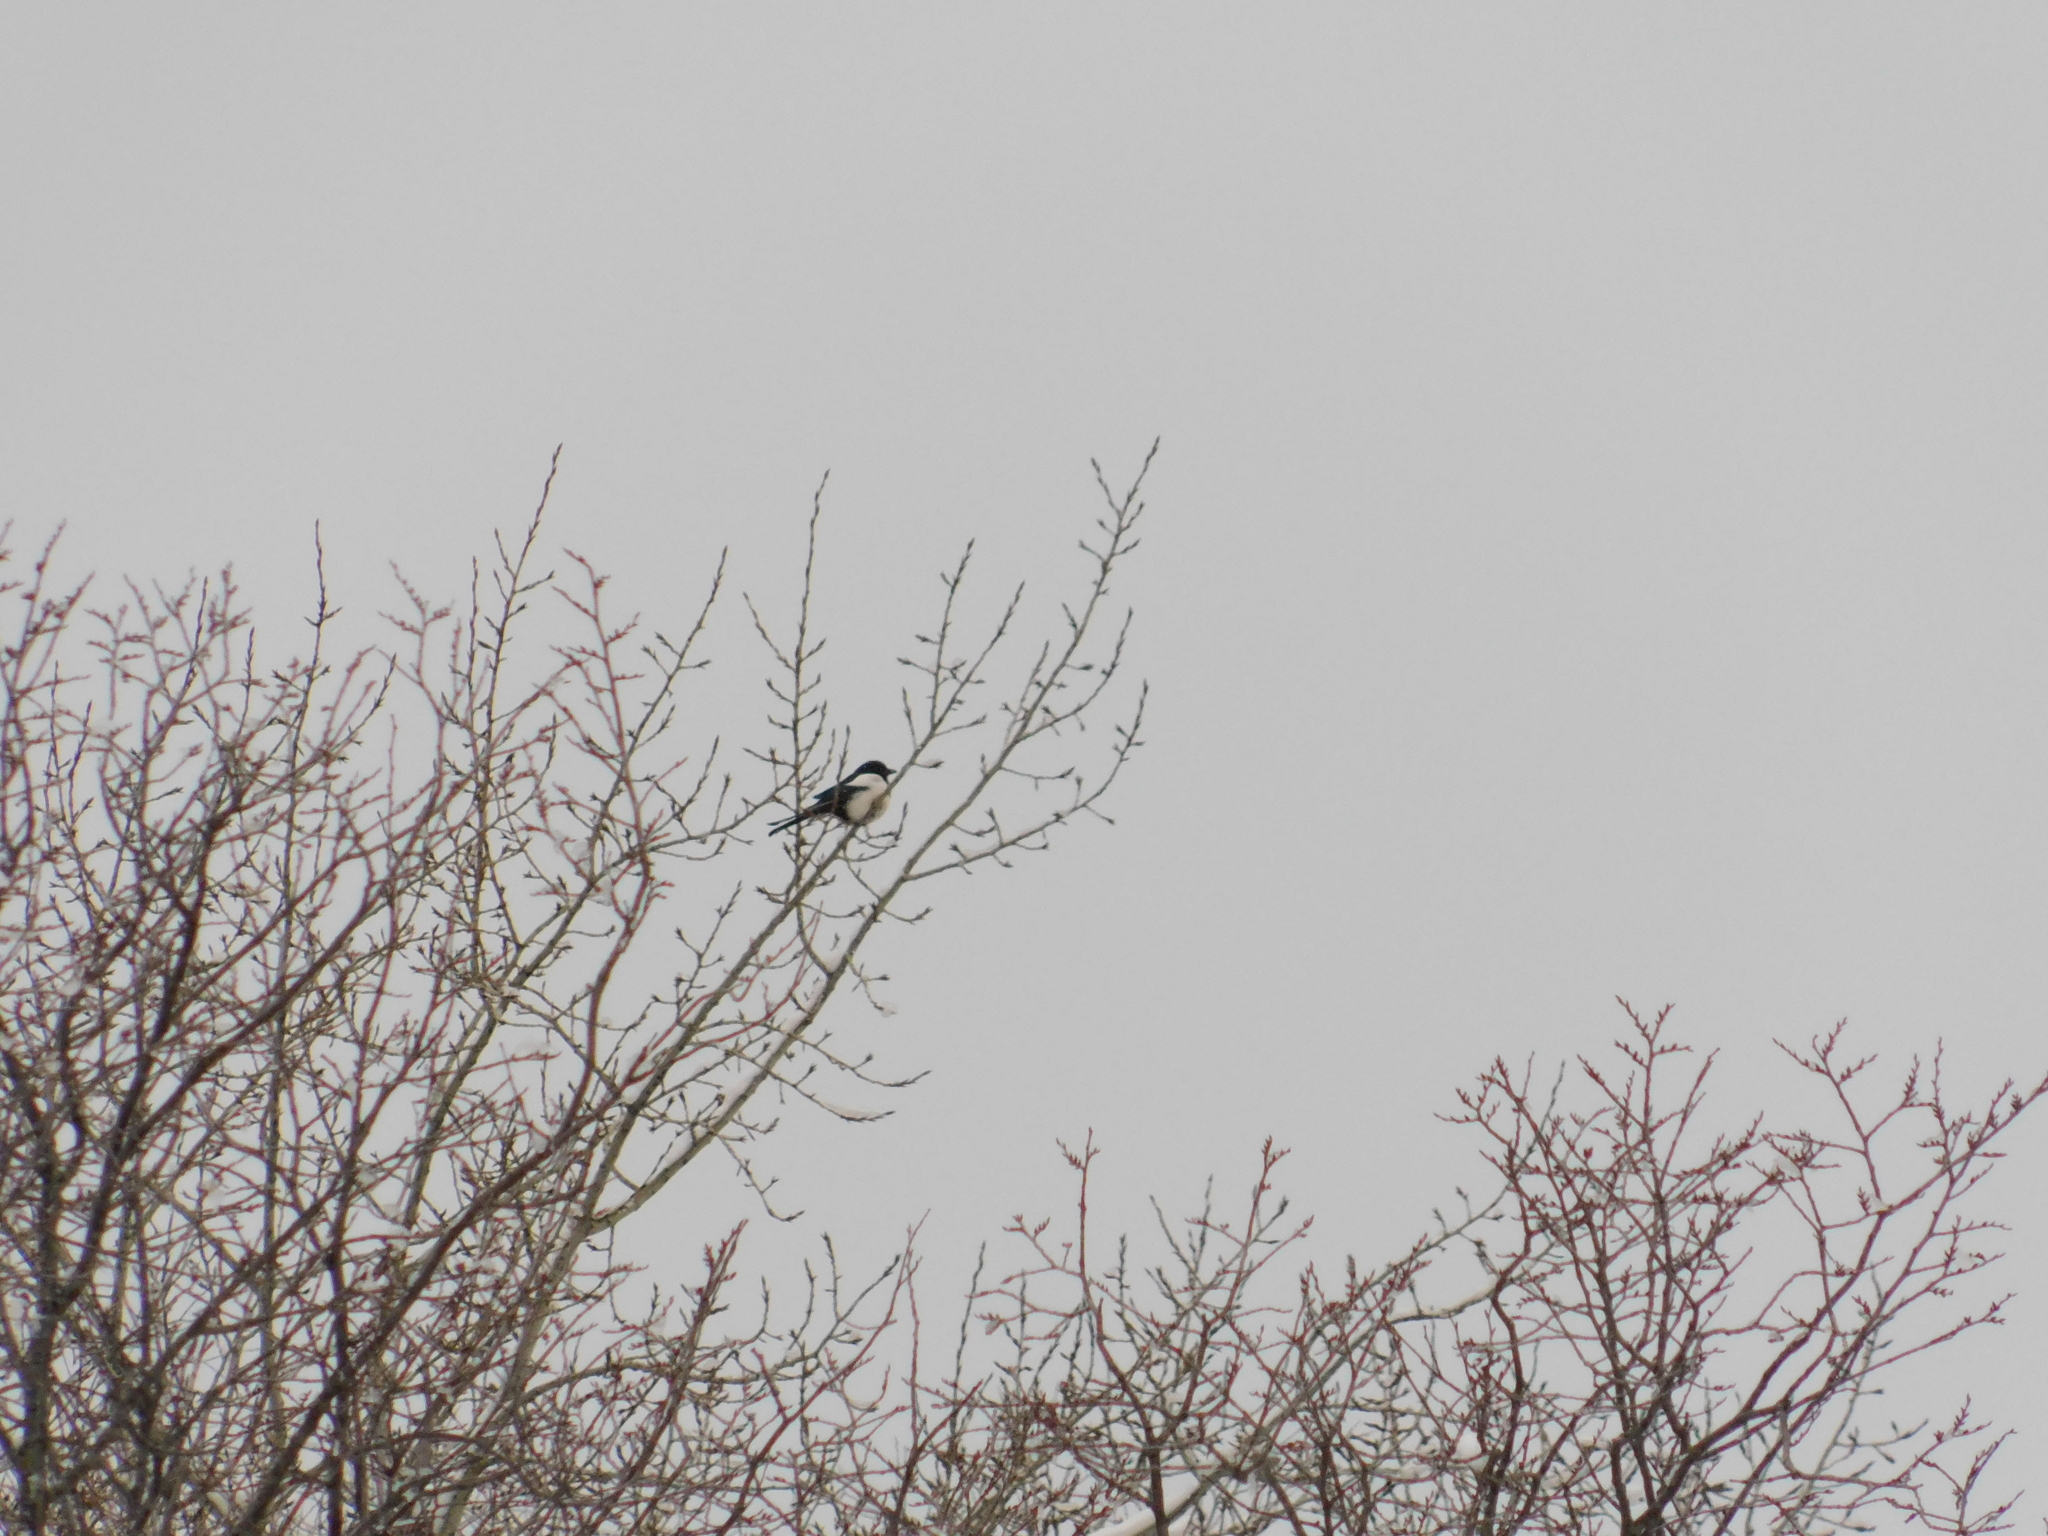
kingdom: Animalia
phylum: Chordata
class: Aves
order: Passeriformes
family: Corvidae
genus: Pica
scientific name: Pica pica
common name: Eurasian magpie
